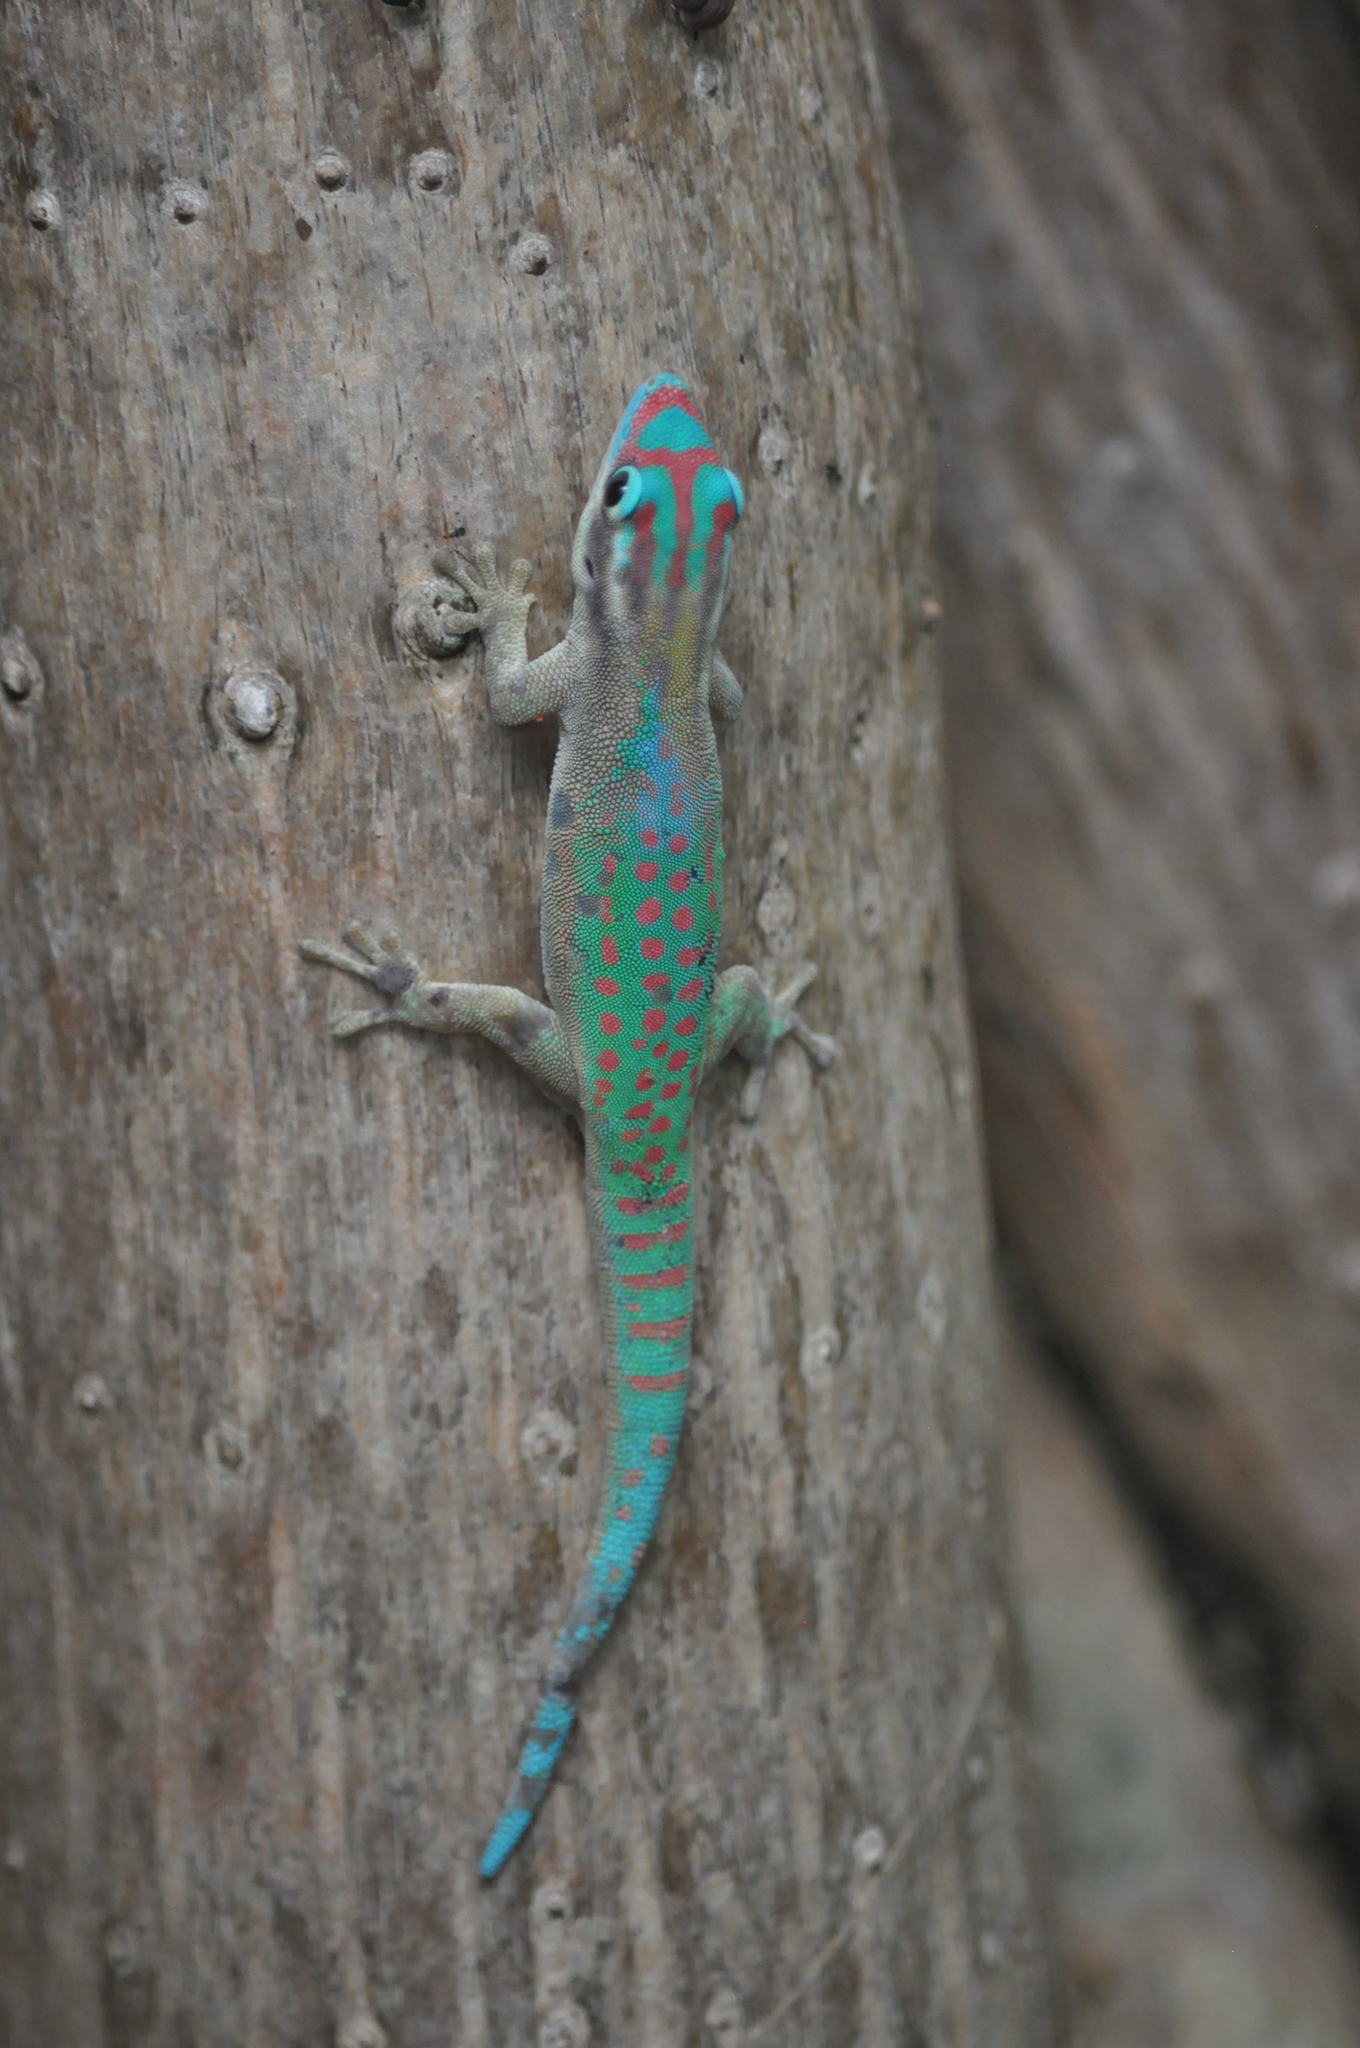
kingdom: Animalia
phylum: Chordata
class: Squamata
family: Gekkonidae
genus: Phelsuma
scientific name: Phelsuma ornata
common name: Ornate day gecko
